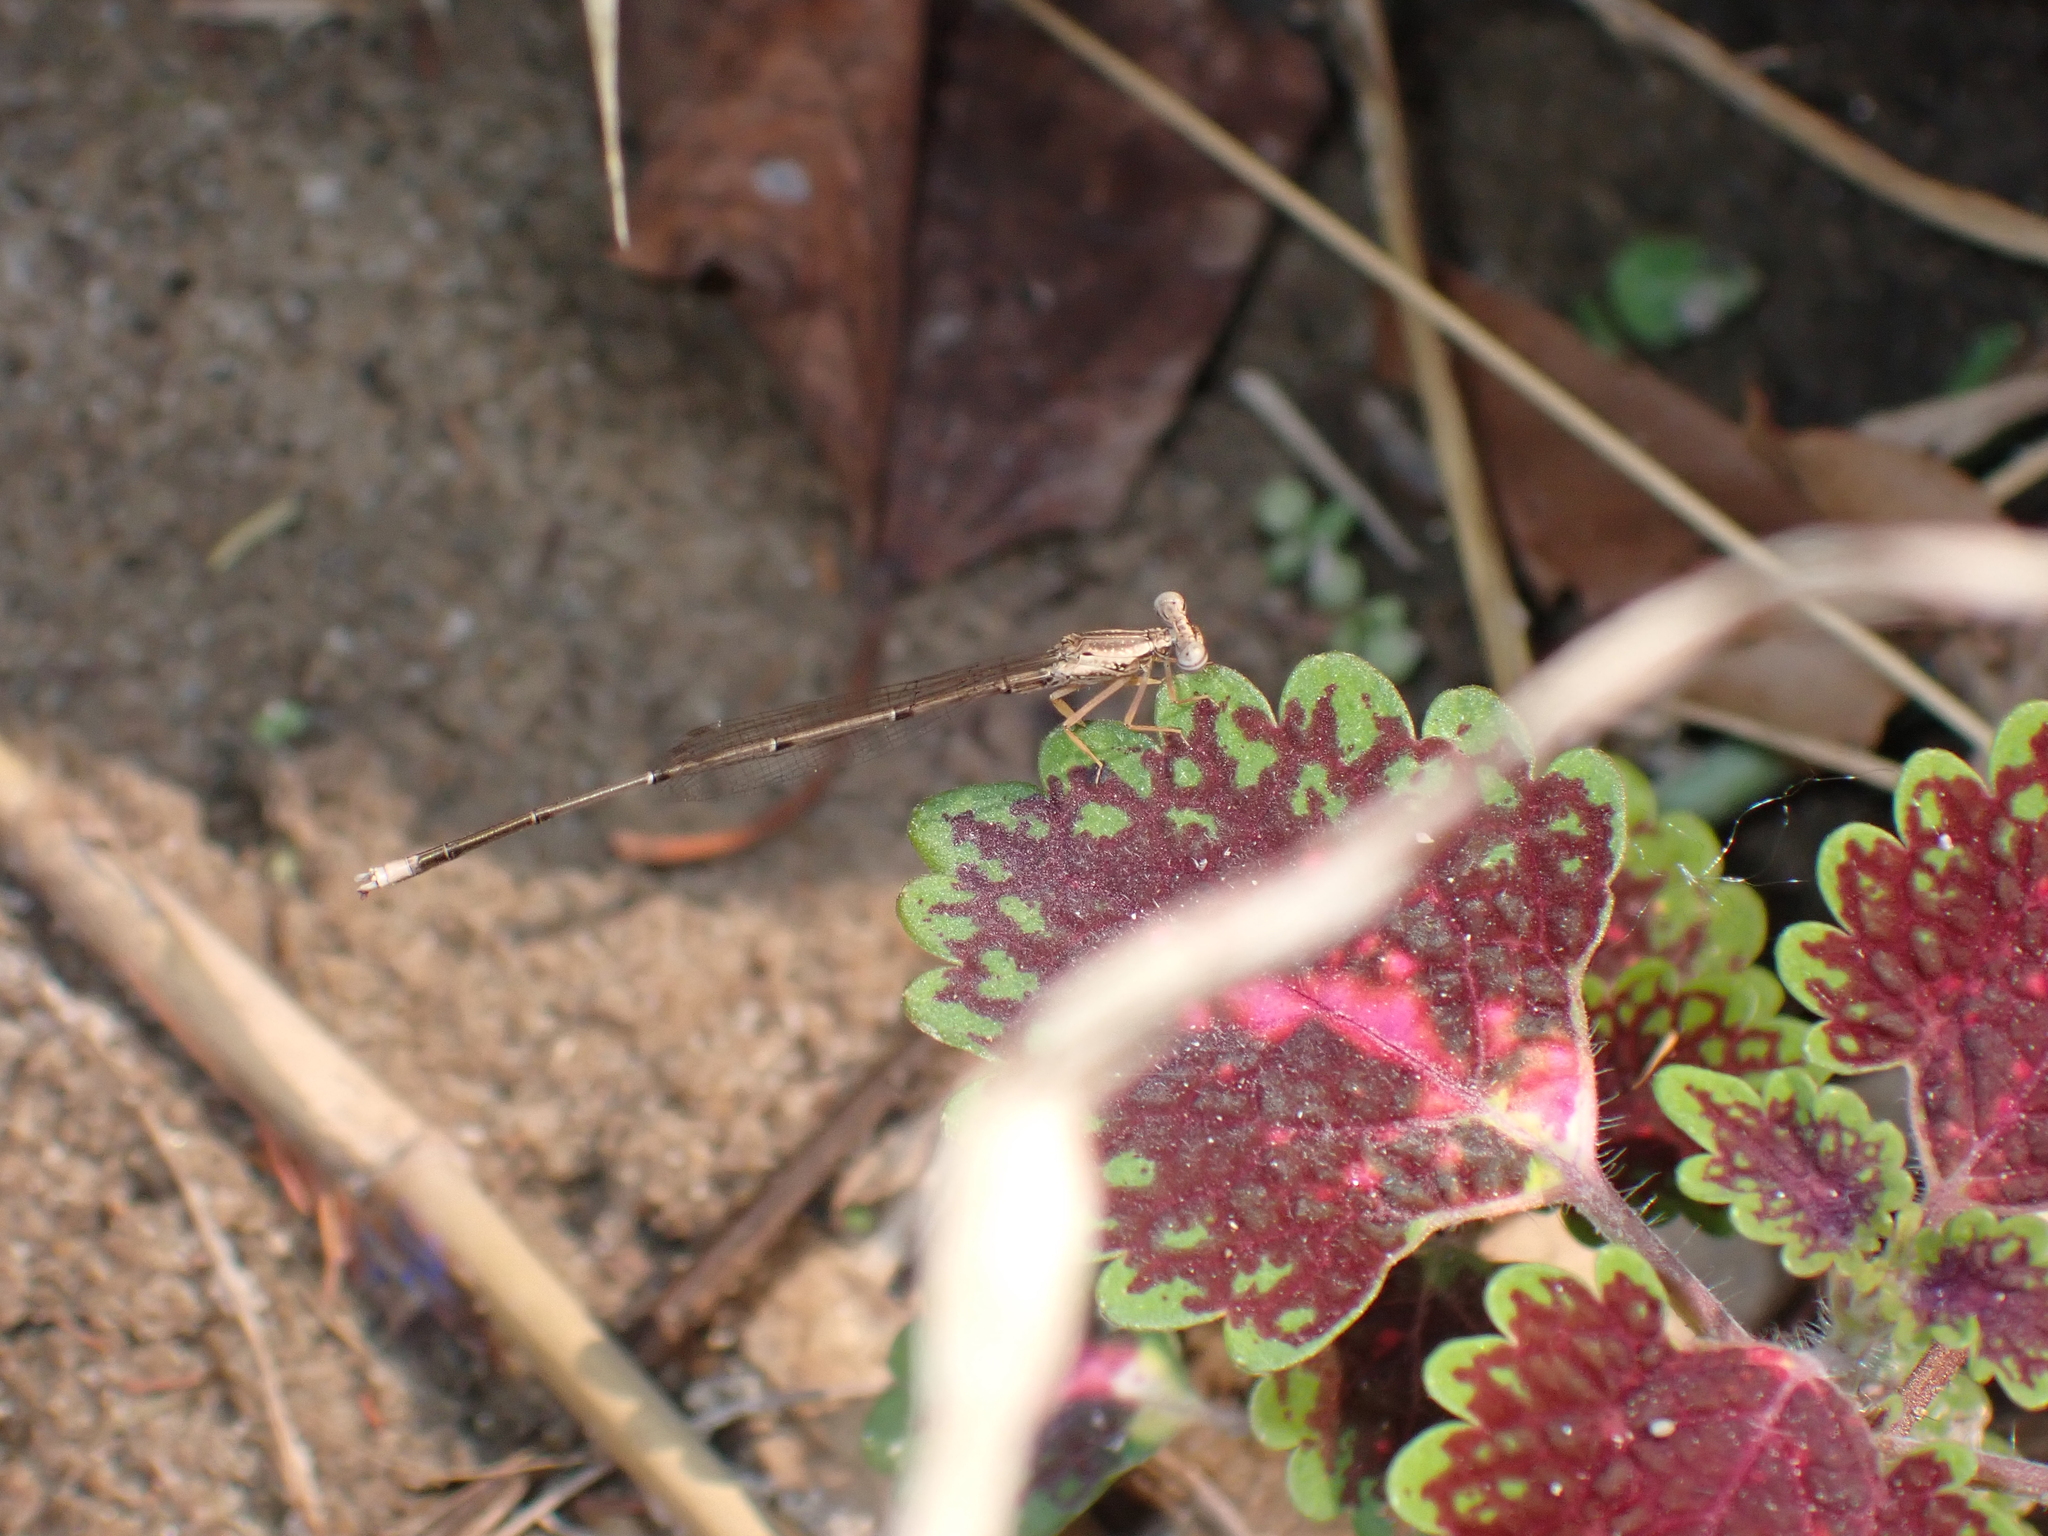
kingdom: Animalia
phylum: Arthropoda
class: Insecta
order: Odonata
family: Platycnemididae
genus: Copera
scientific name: Copera marginipes
